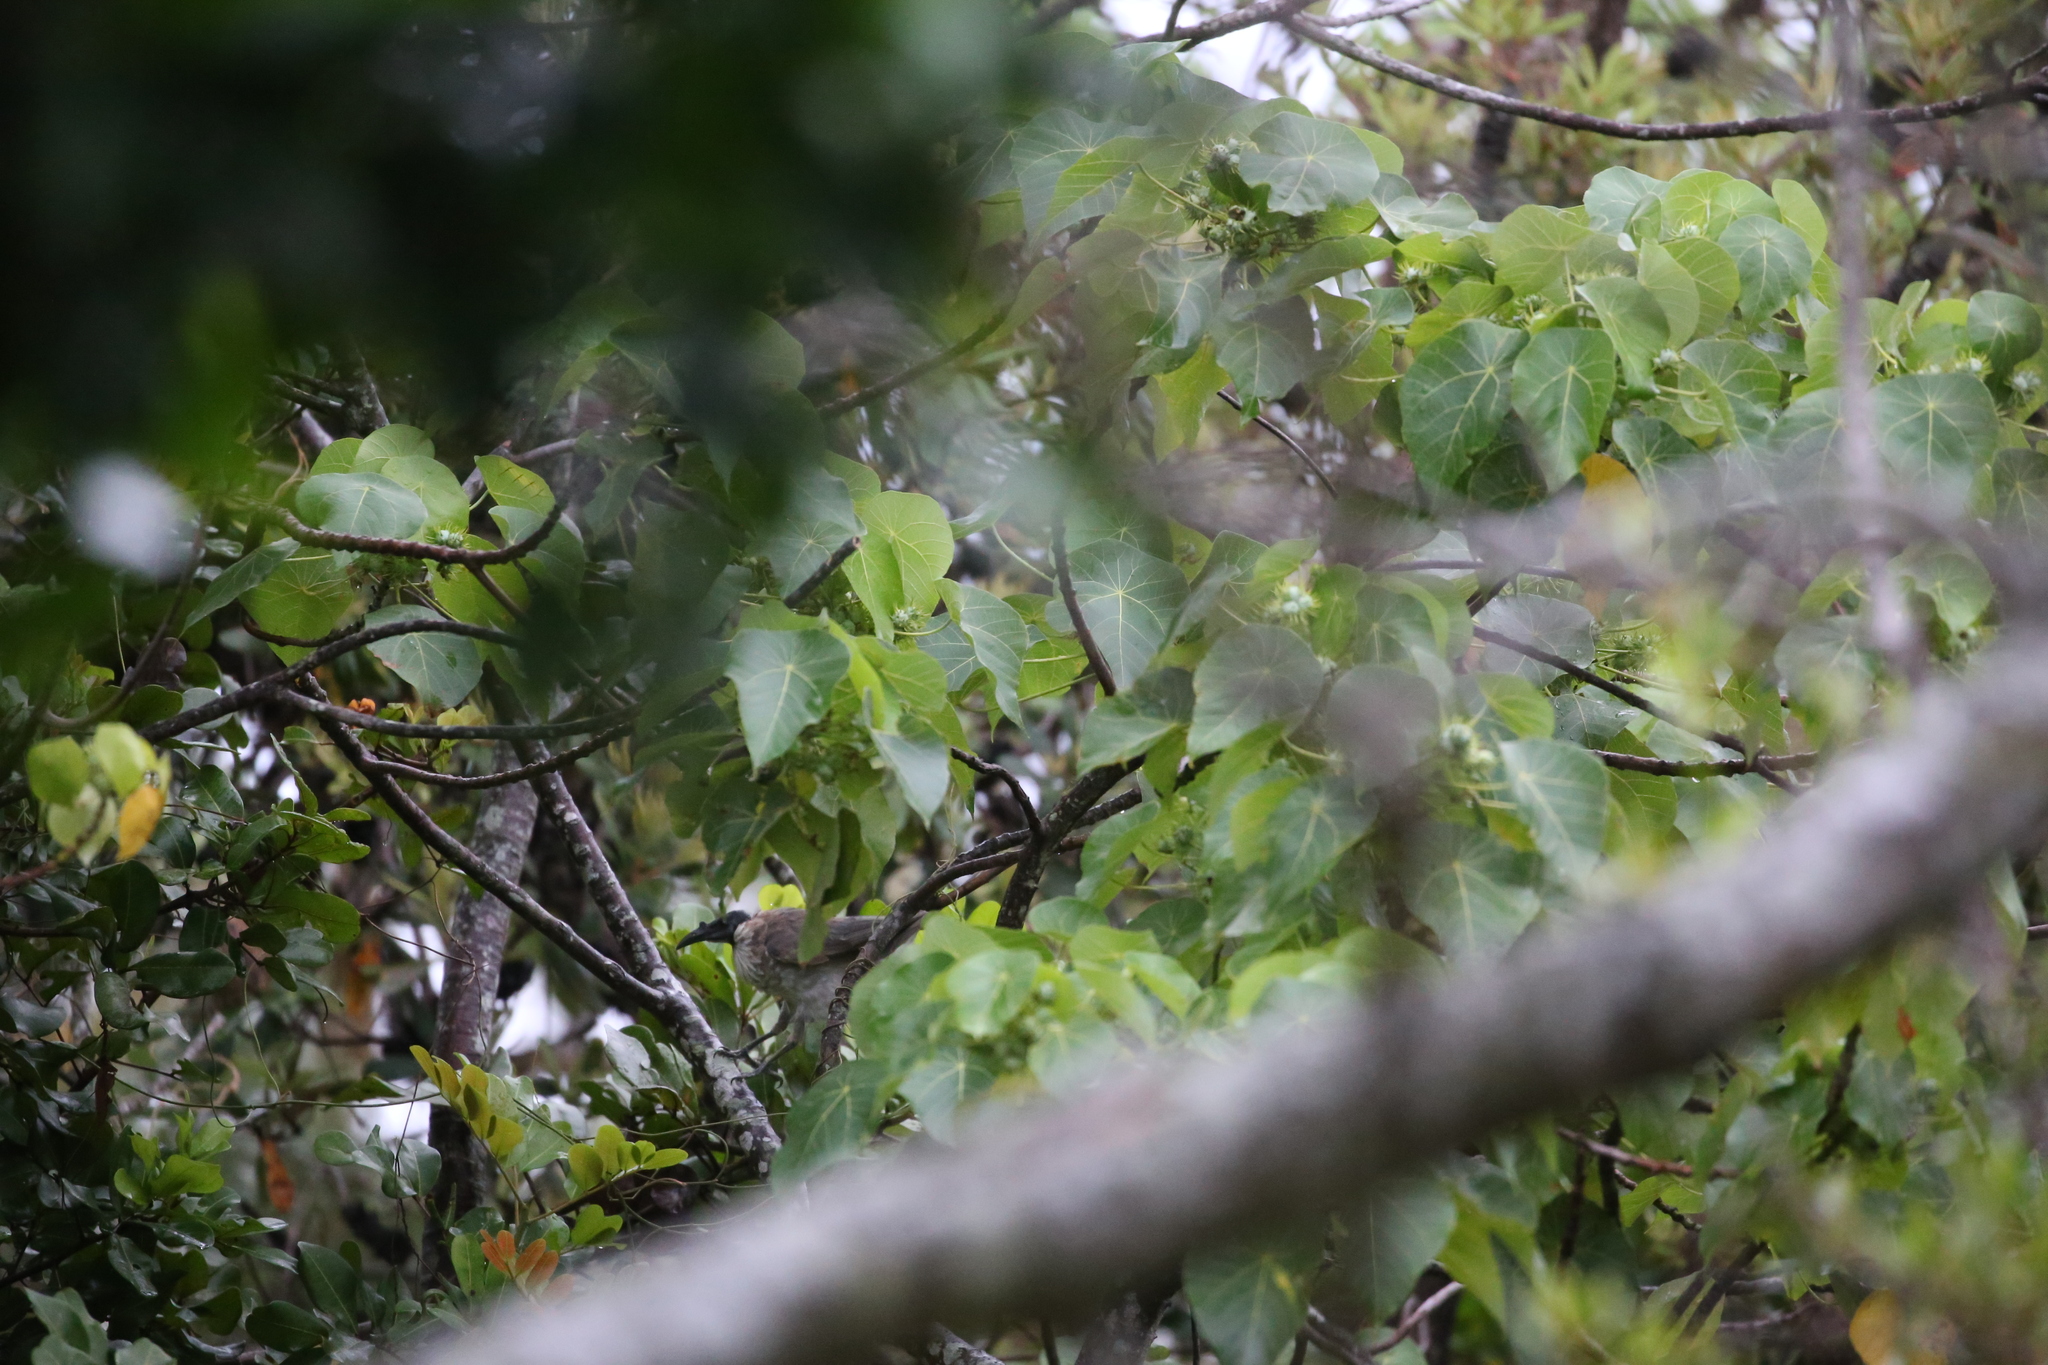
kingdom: Animalia
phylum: Chordata
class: Aves
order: Passeriformes
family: Meliphagidae
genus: Philemon
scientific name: Philemon corniculatus
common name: Noisy friarbird
